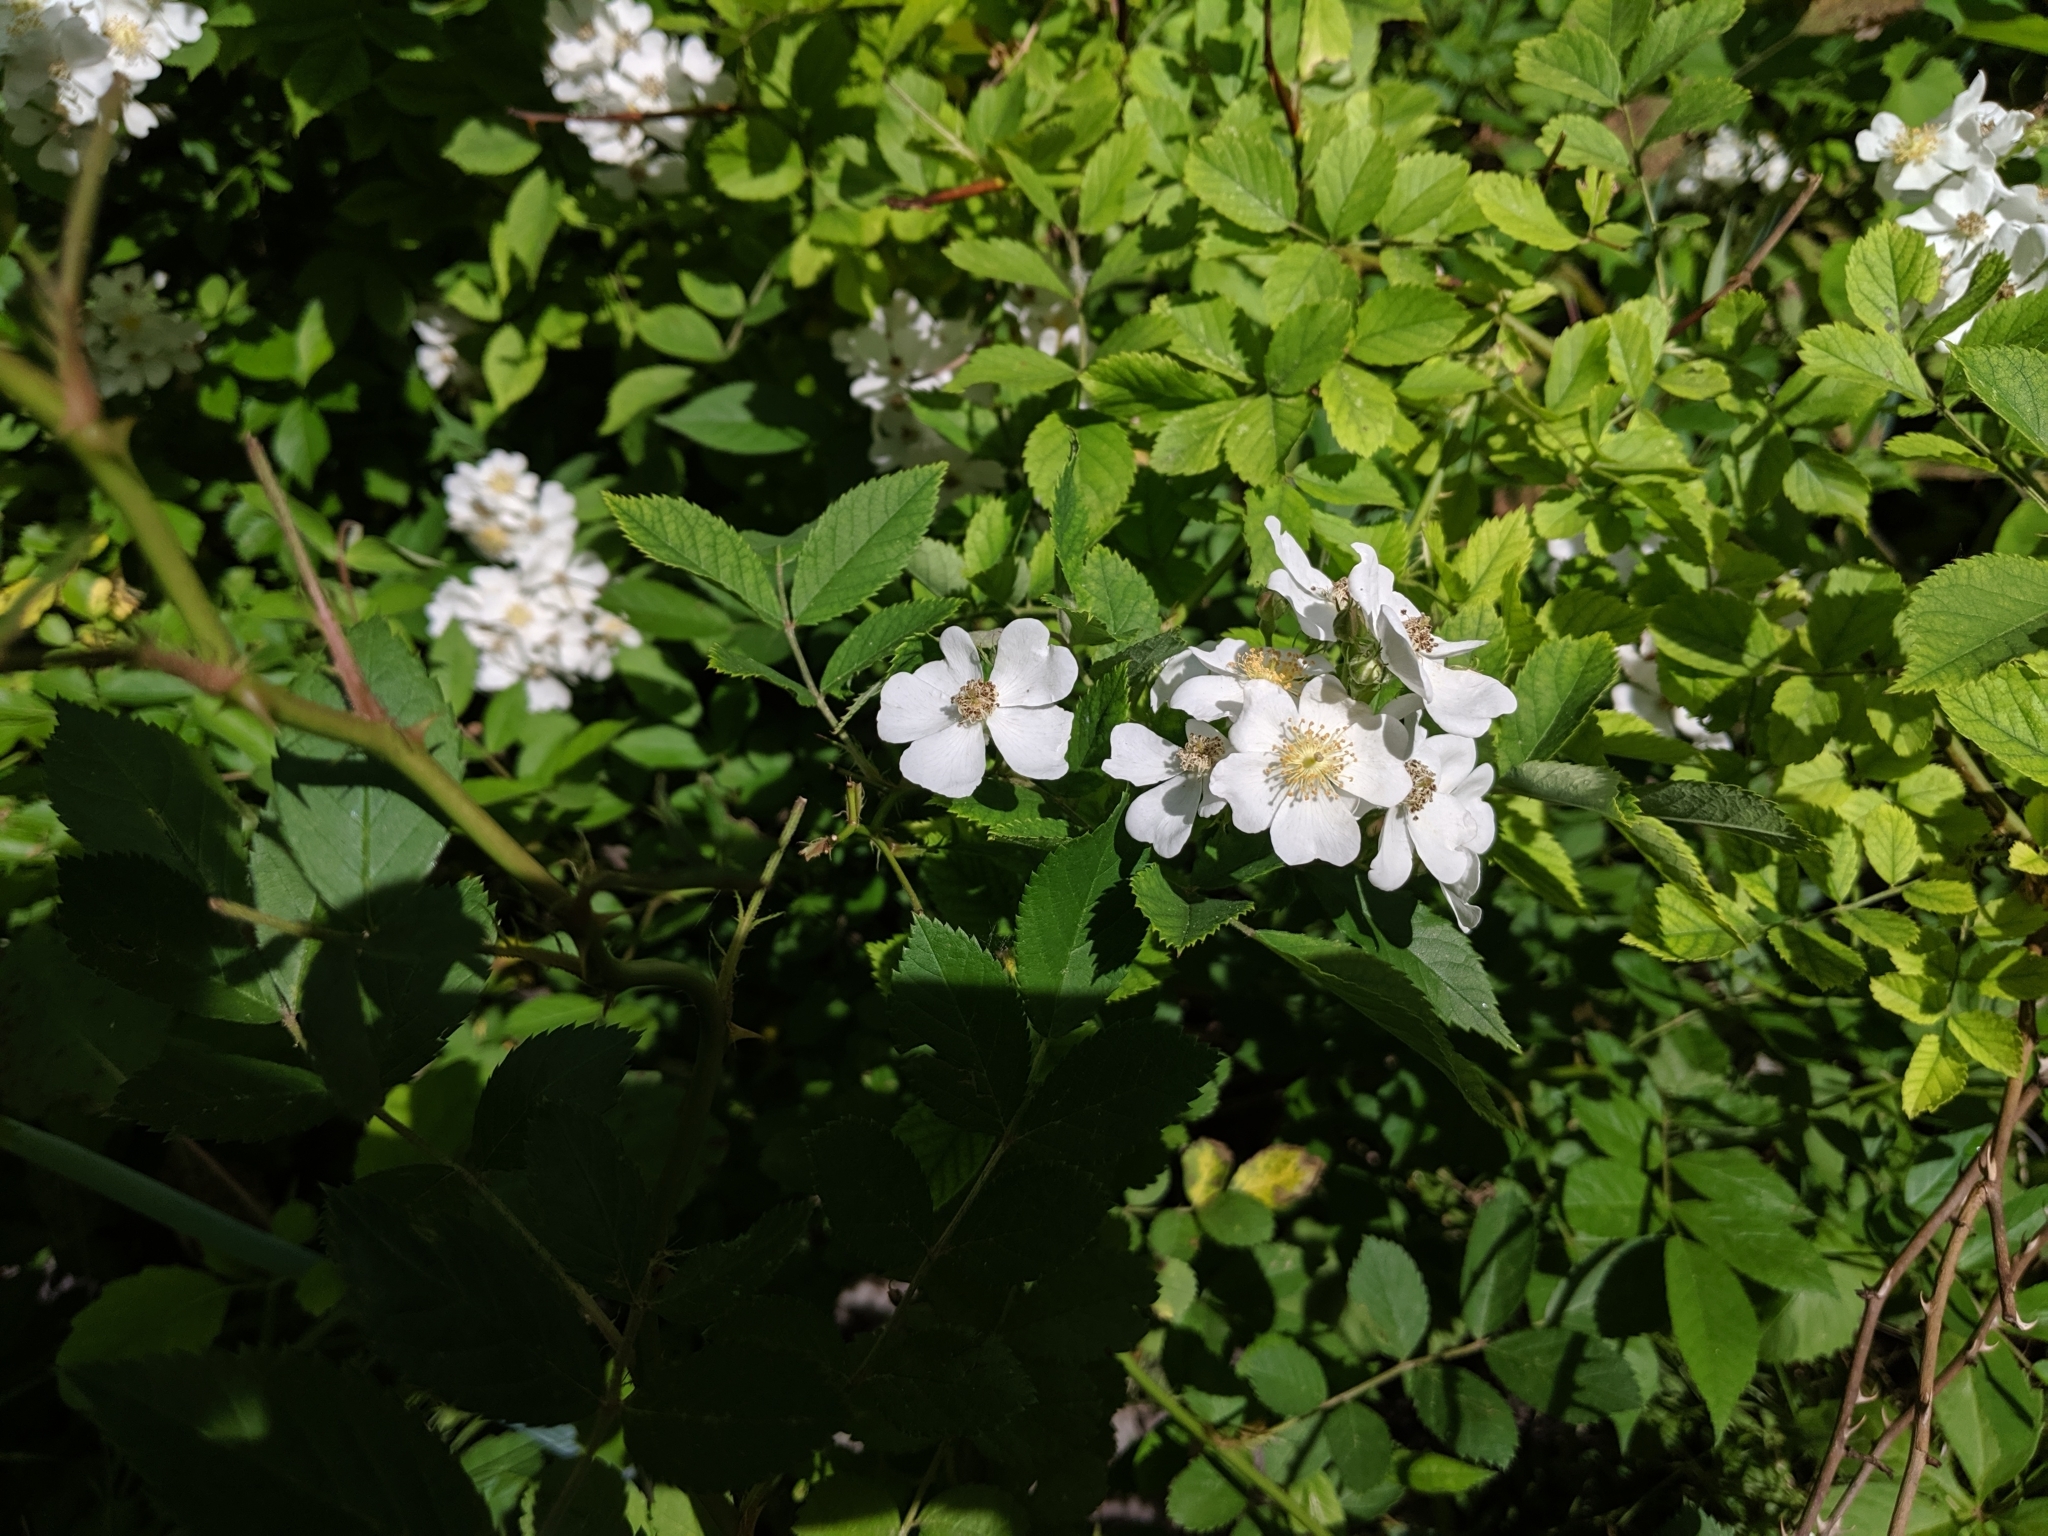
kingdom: Plantae
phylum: Tracheophyta
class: Magnoliopsida
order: Rosales
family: Rosaceae
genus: Rosa
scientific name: Rosa multiflora
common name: Multiflora rose
